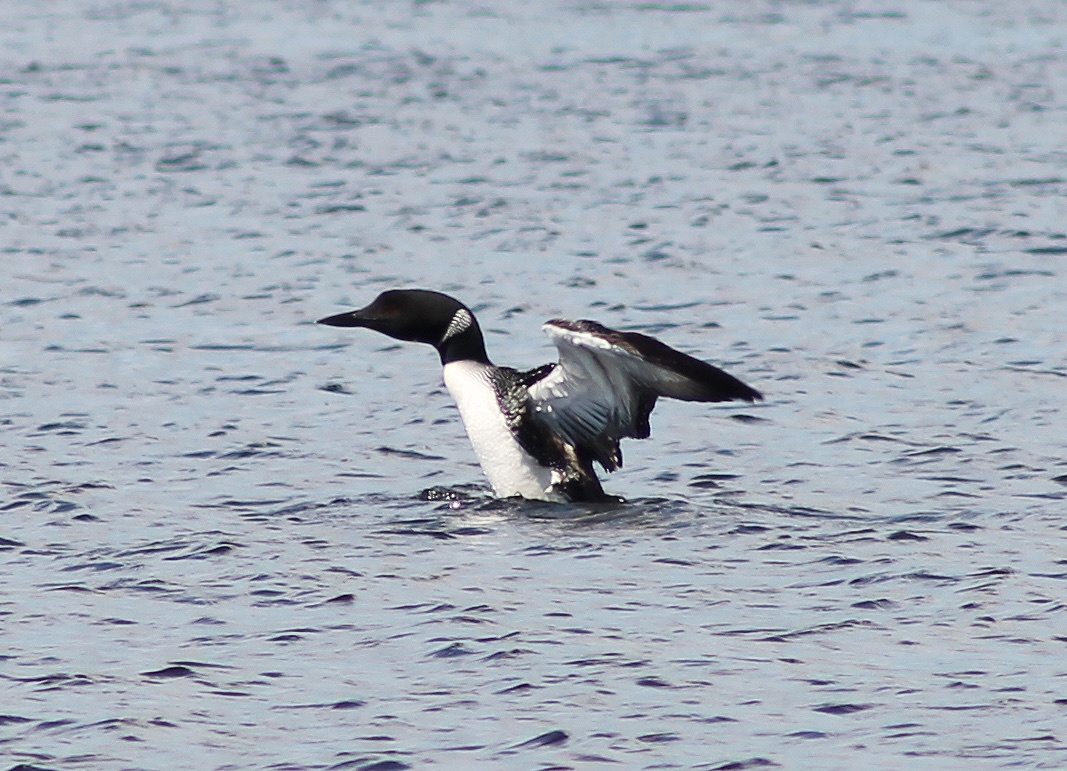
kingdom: Animalia
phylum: Chordata
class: Aves
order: Gaviiformes
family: Gaviidae
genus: Gavia
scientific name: Gavia immer
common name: Common loon
